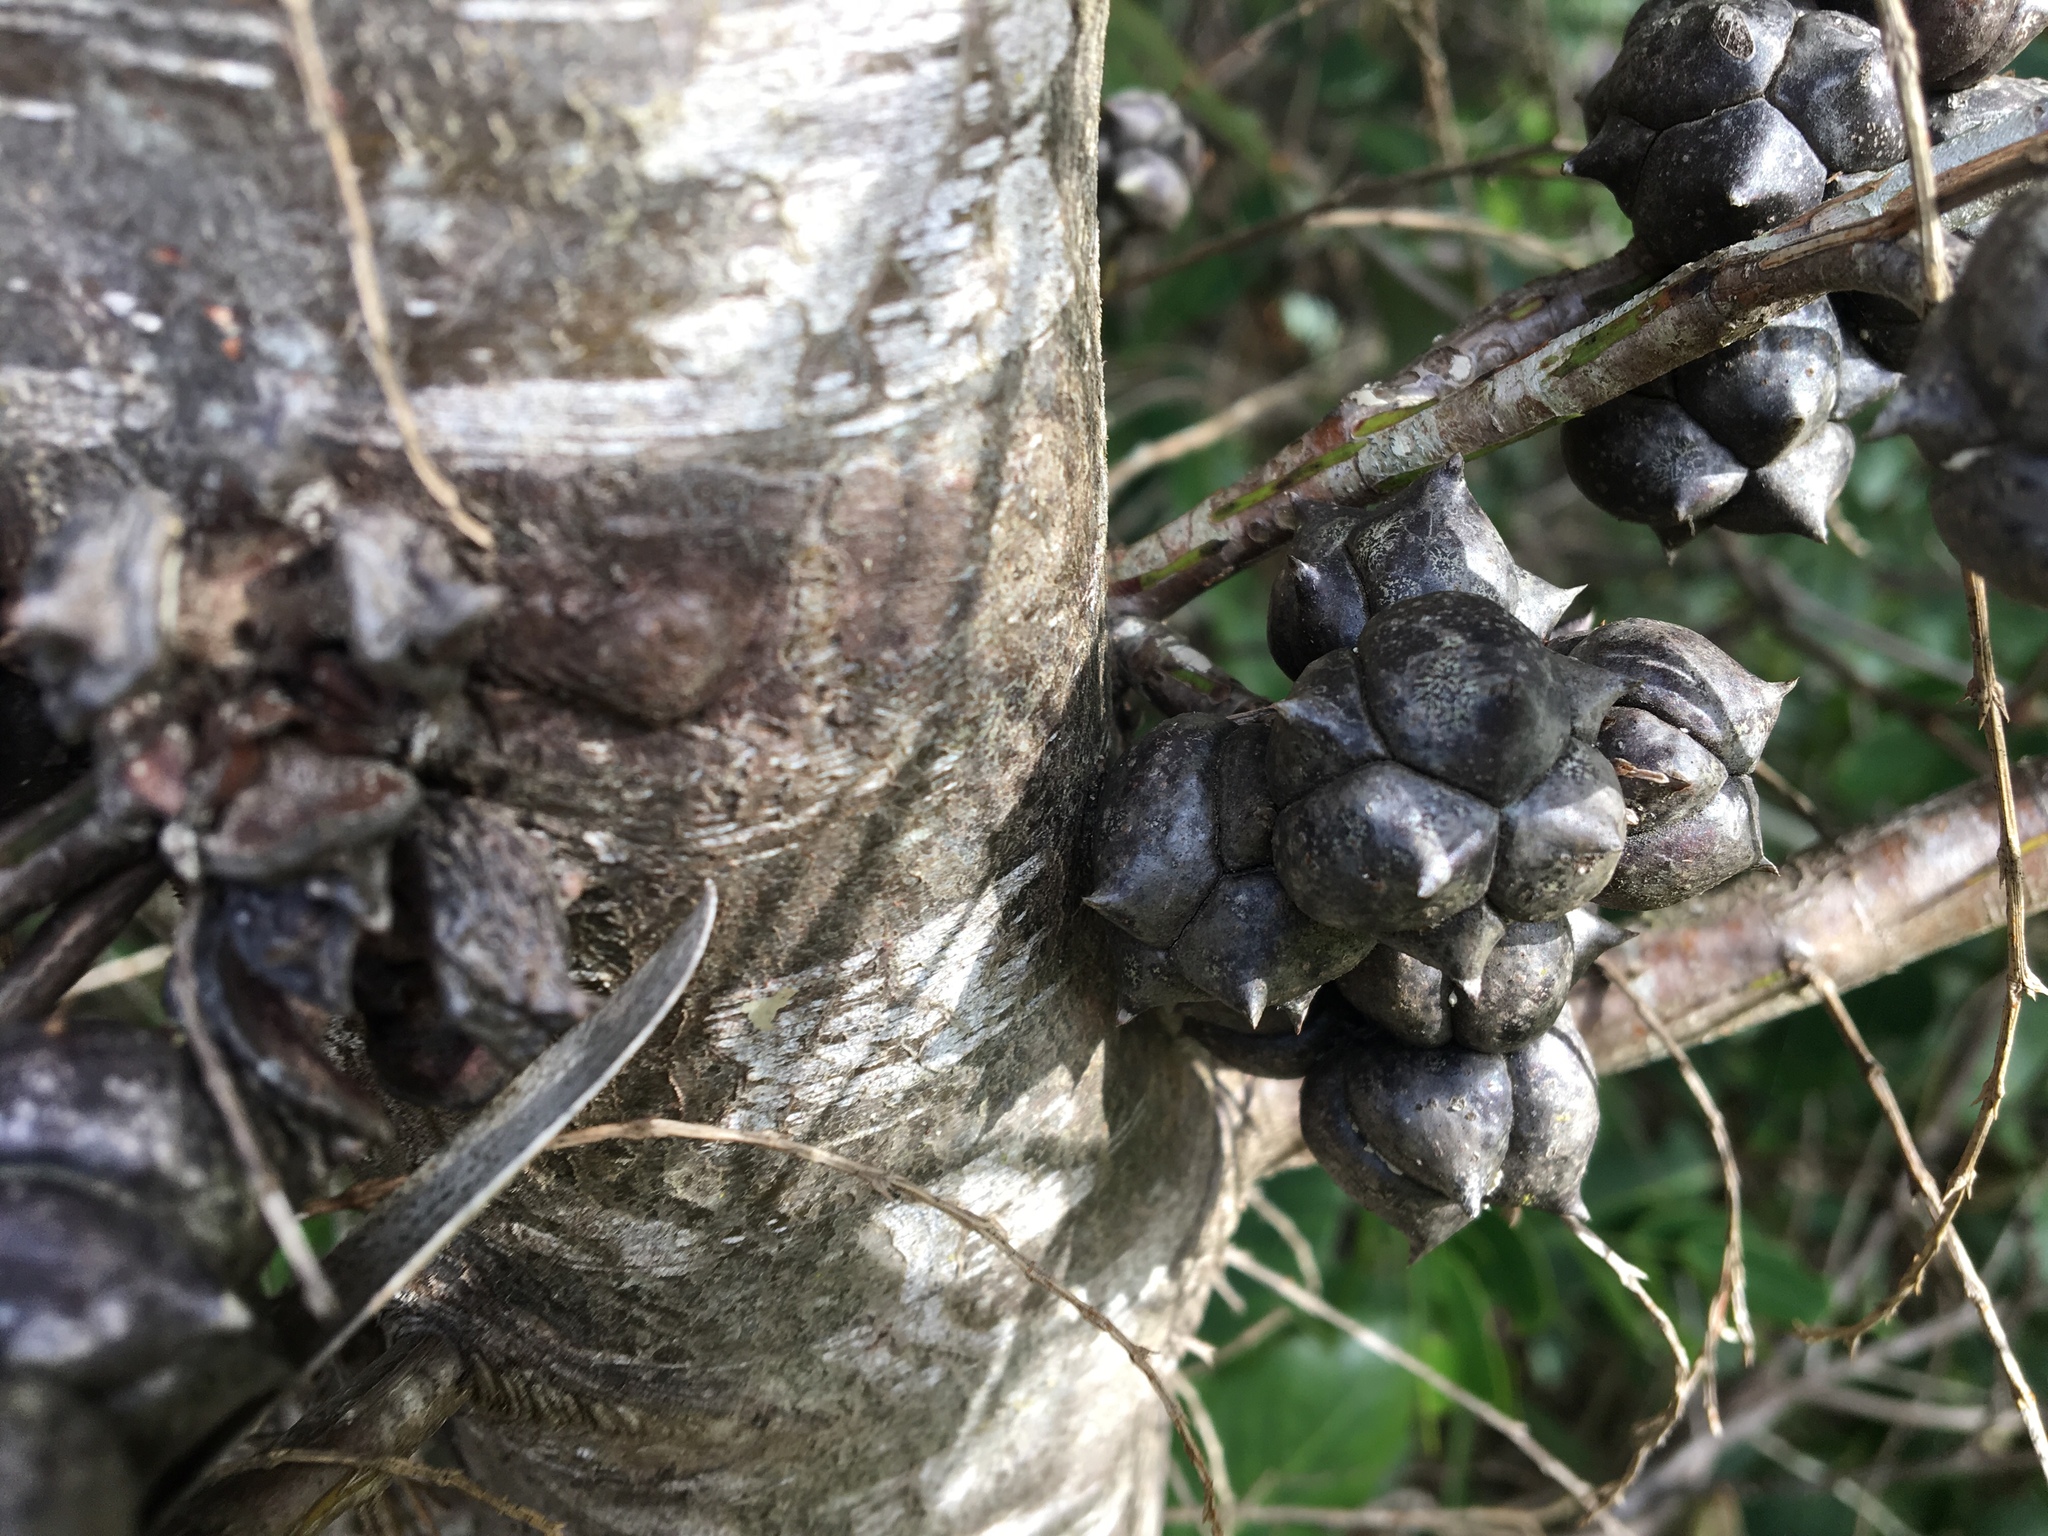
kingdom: Plantae
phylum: Tracheophyta
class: Pinopsida
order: Pinales
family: Cupressaceae
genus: Callitris
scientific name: Callitris rhomboidea
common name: Illawara mountain pine
